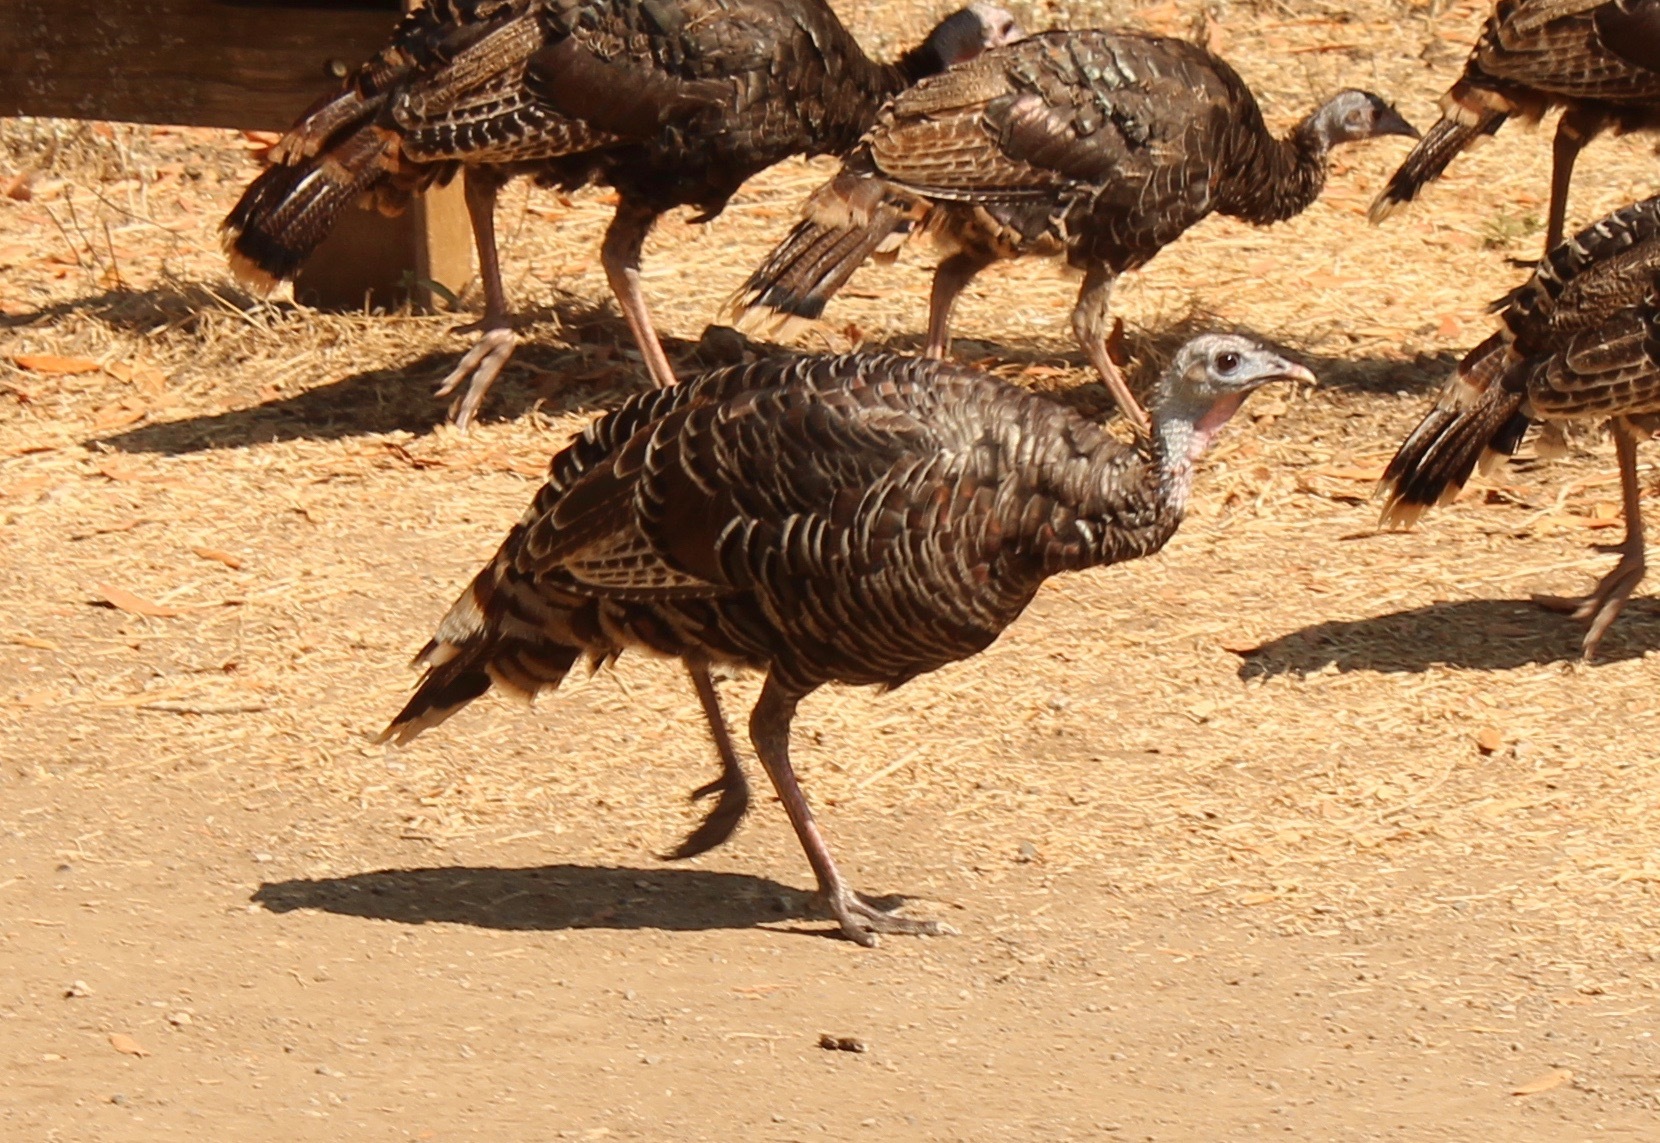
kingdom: Animalia
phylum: Chordata
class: Aves
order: Galliformes
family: Phasianidae
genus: Meleagris
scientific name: Meleagris gallopavo
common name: Wild turkey
